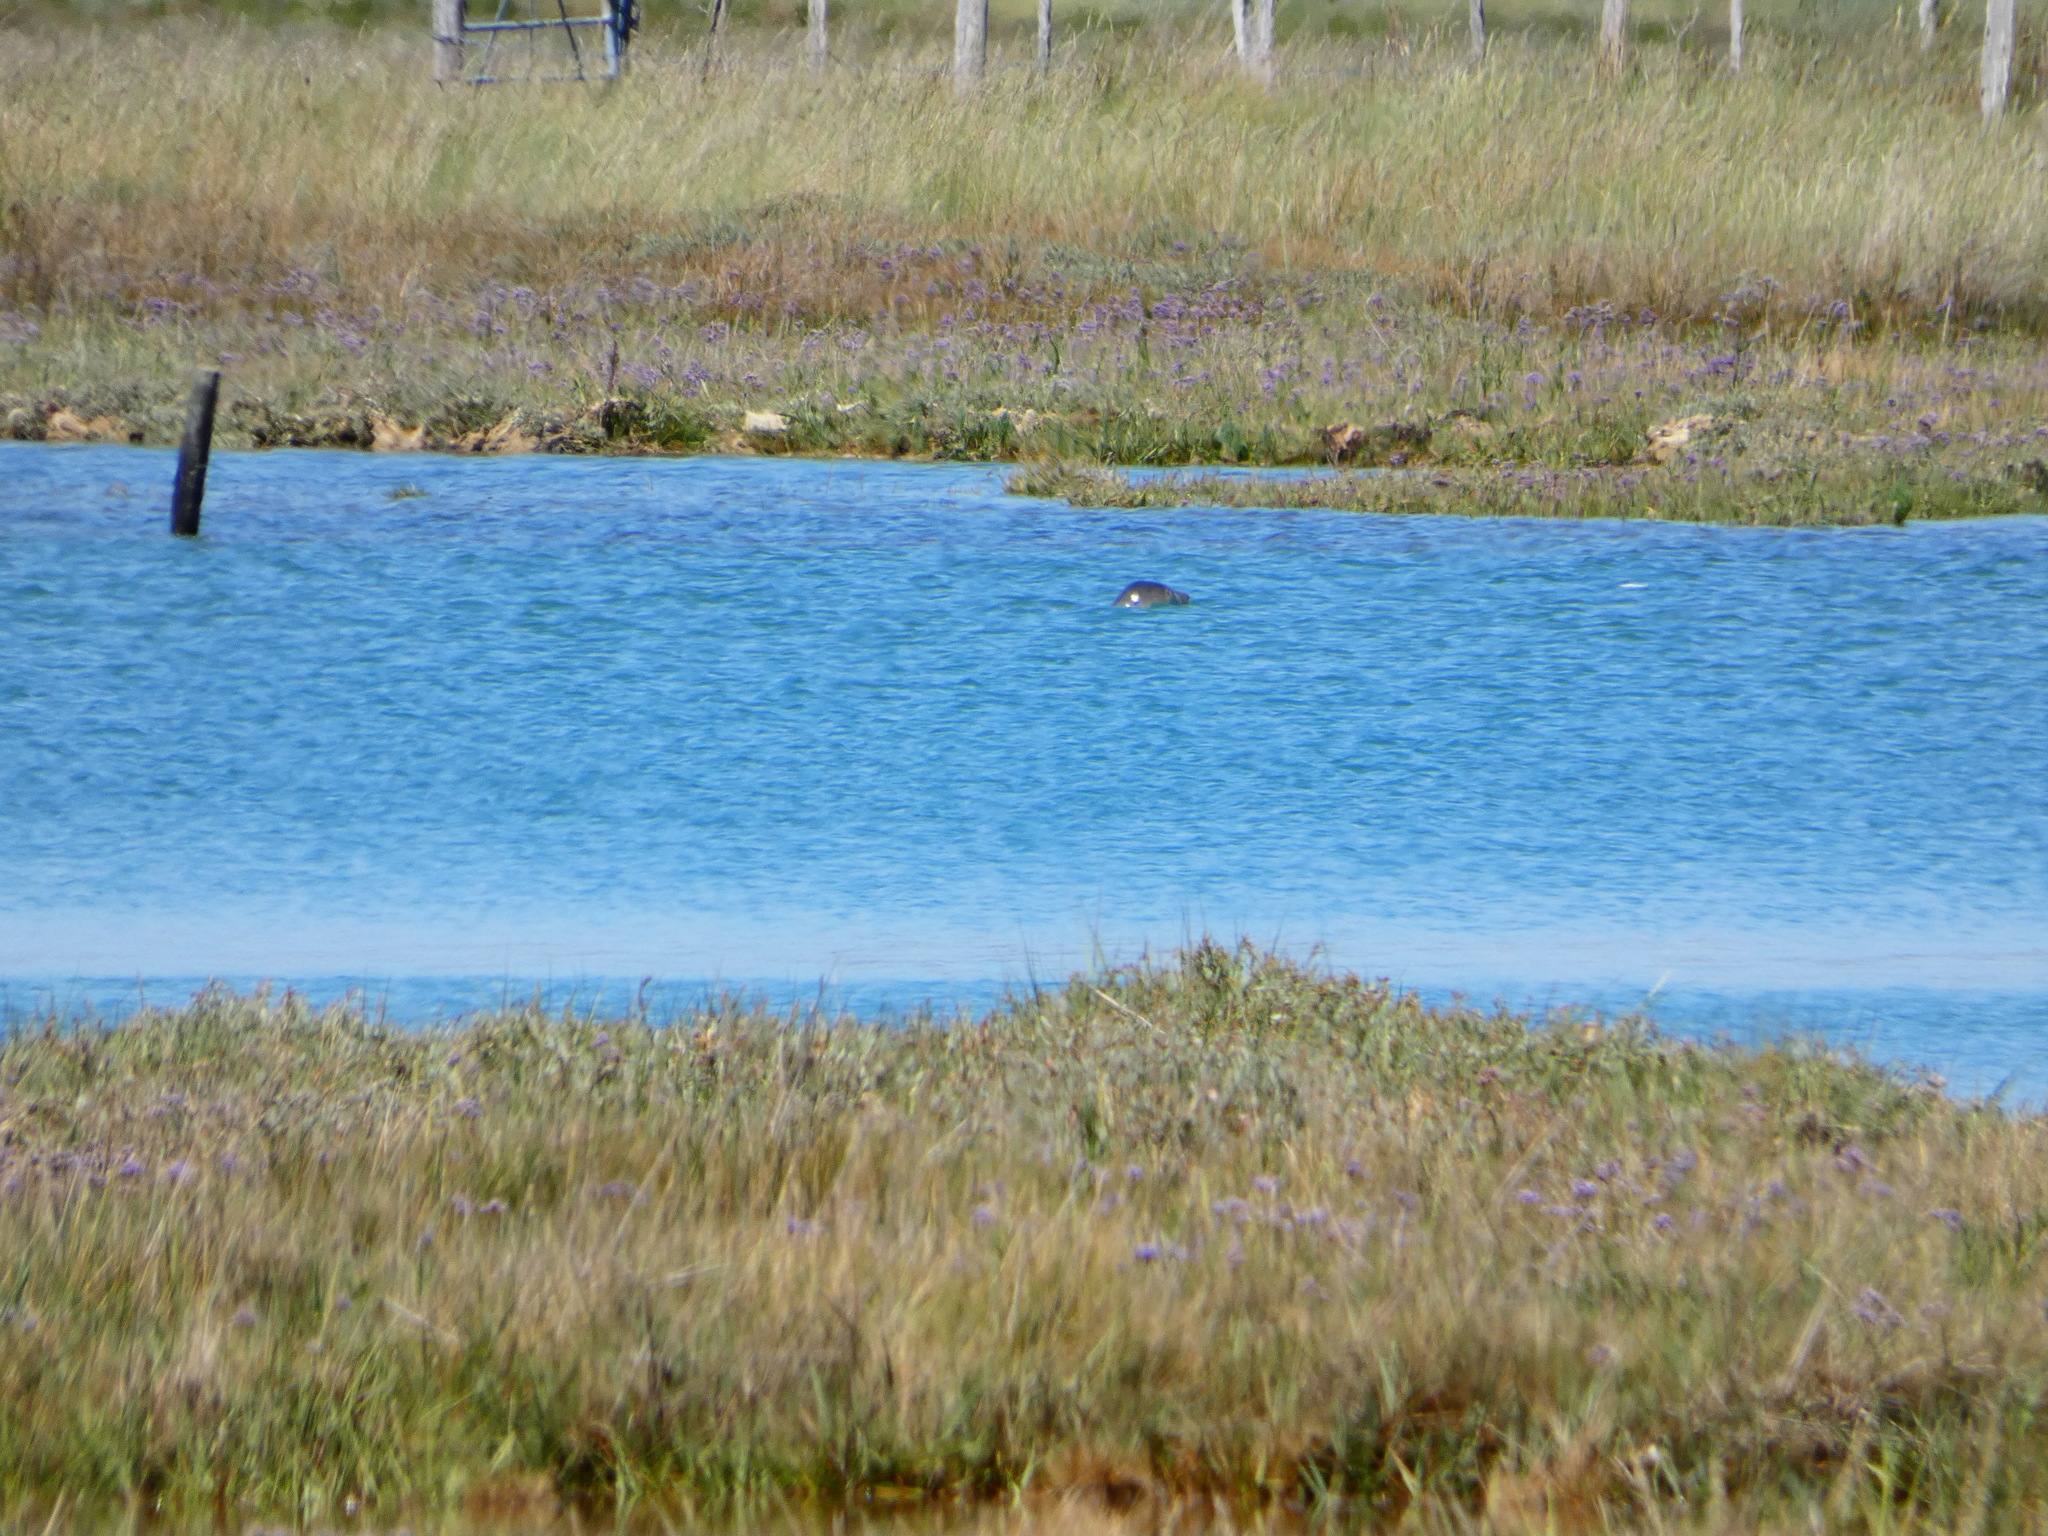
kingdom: Animalia
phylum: Chordata
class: Mammalia
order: Carnivora
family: Phocidae
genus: Halichoerus
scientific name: Halichoerus grypus
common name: Grey seal
